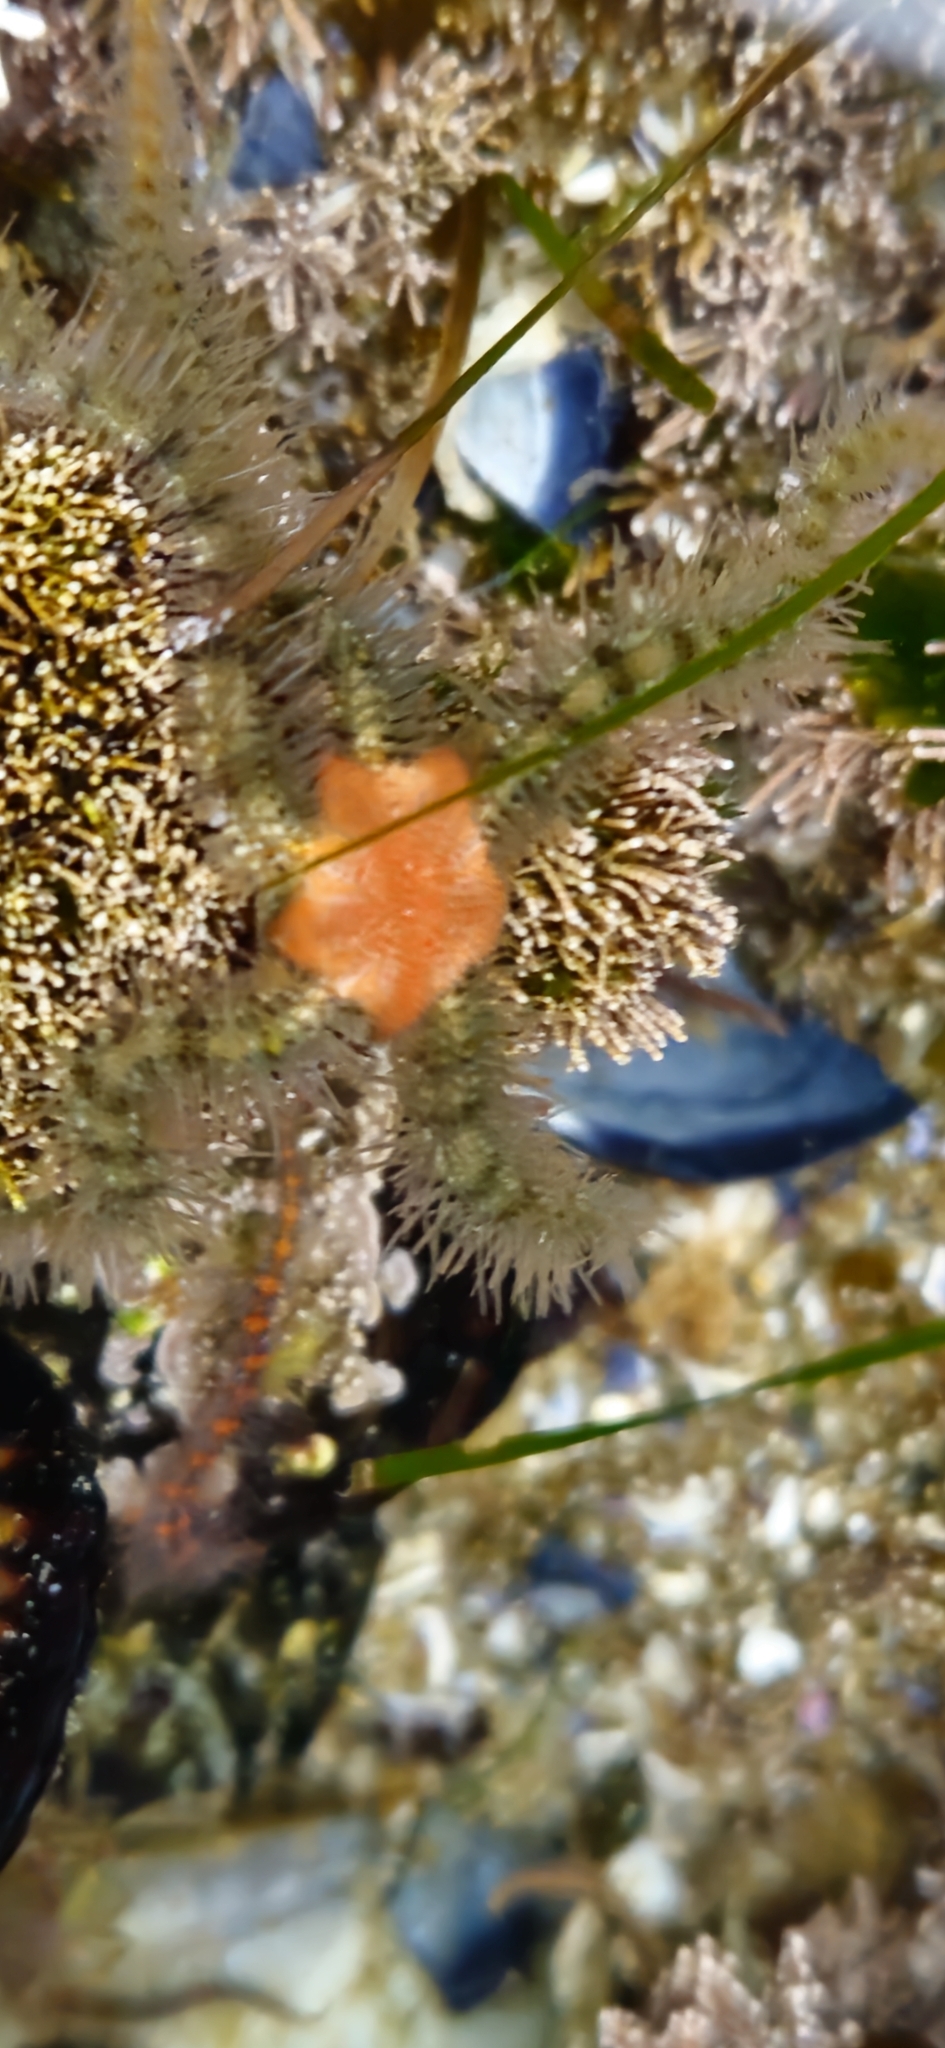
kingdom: Animalia
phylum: Echinodermata
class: Ophiuroidea
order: Amphilepidida
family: Ophiotrichidae
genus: Ophiothrix
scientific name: Ophiothrix spiculata
